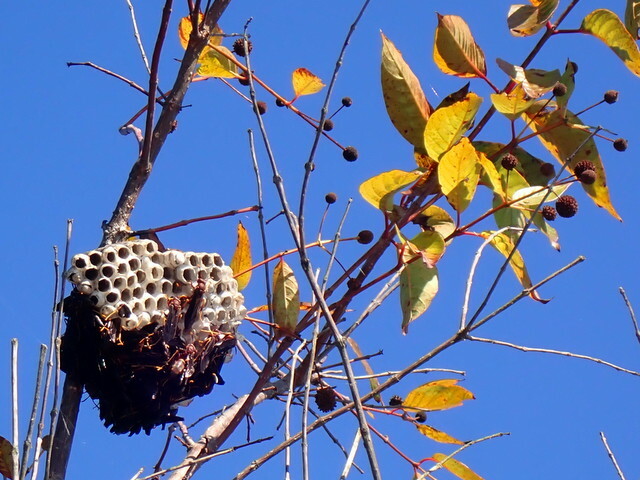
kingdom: Animalia
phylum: Arthropoda
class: Insecta
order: Hymenoptera
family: Eumenidae
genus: Polistes
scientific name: Polistes annularis
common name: Ringed paper wasp
